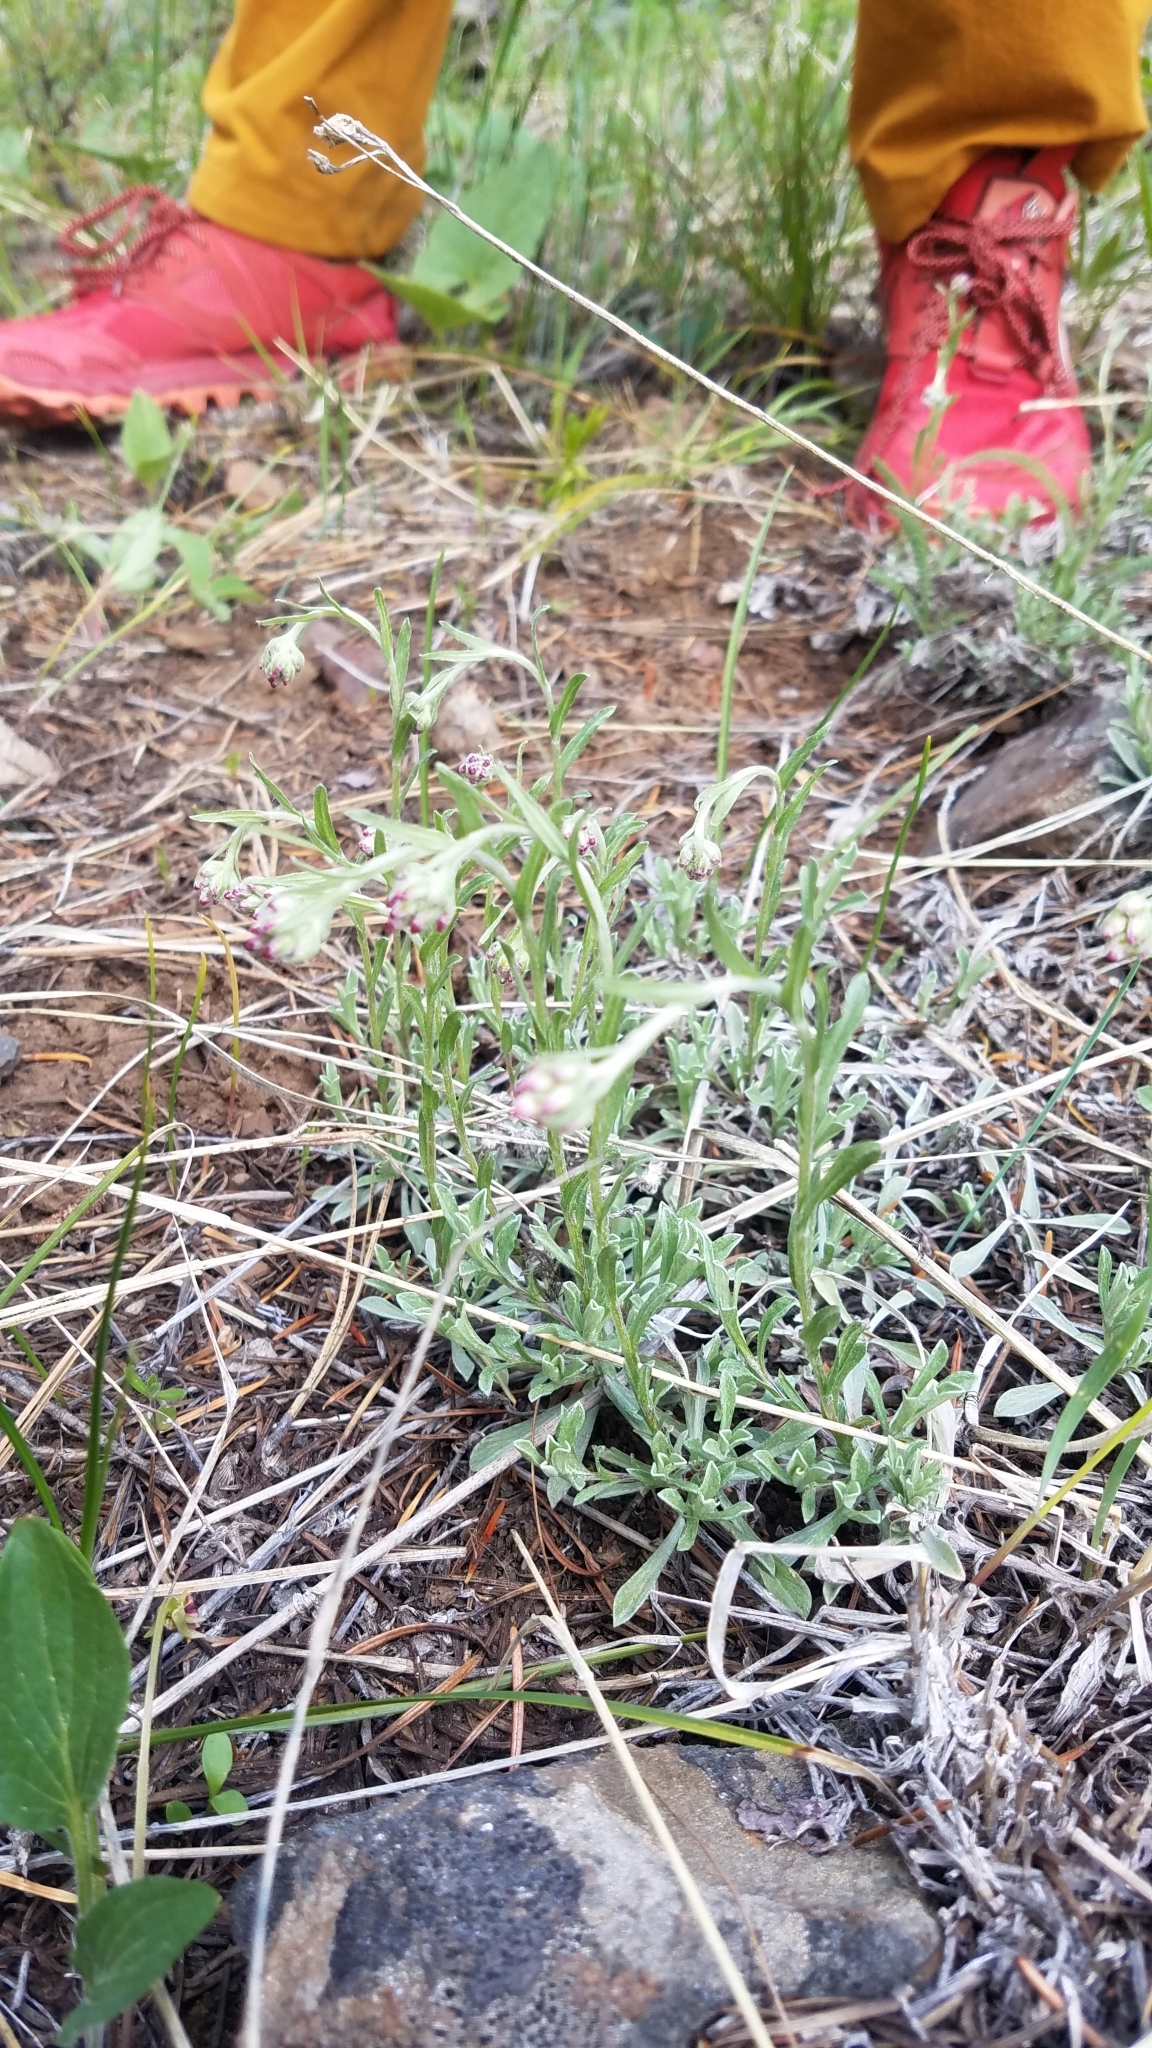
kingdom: Plantae
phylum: Tracheophyta
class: Magnoliopsida
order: Asterales
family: Asteraceae
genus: Antennaria
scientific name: Antennaria rosea
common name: Rosy pussytoes
